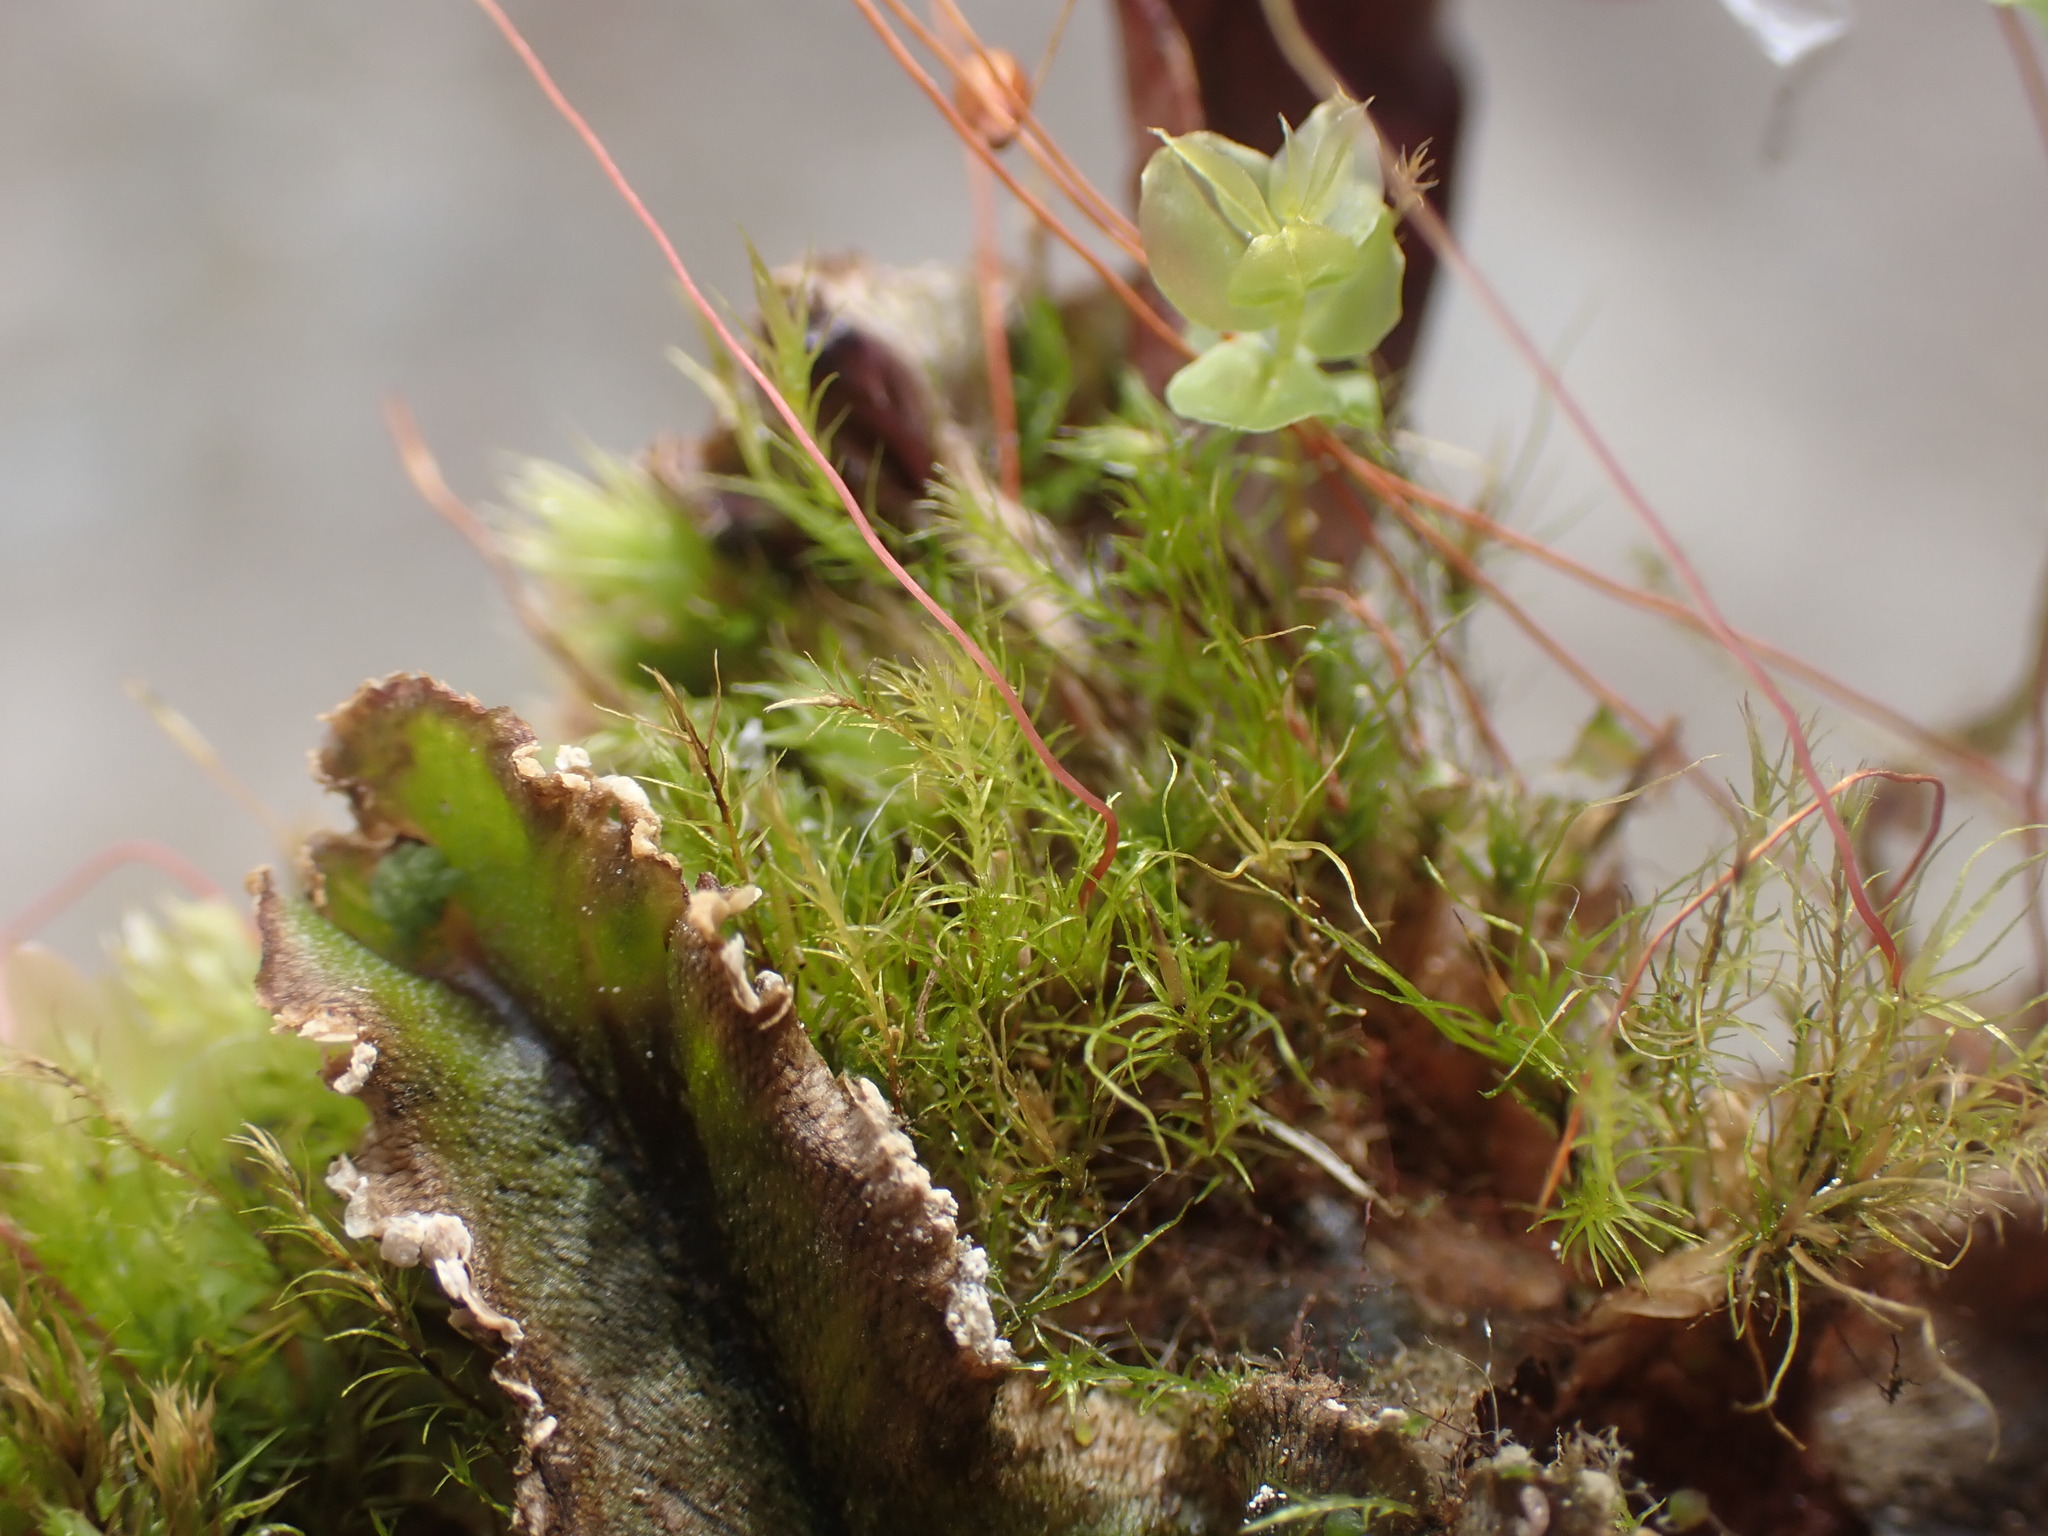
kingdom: Plantae
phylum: Bryophyta
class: Bryopsida
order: Splachnales
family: Meesiaceae
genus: Leptobryum
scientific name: Leptobryum pyriforme
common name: Golden thread moss
